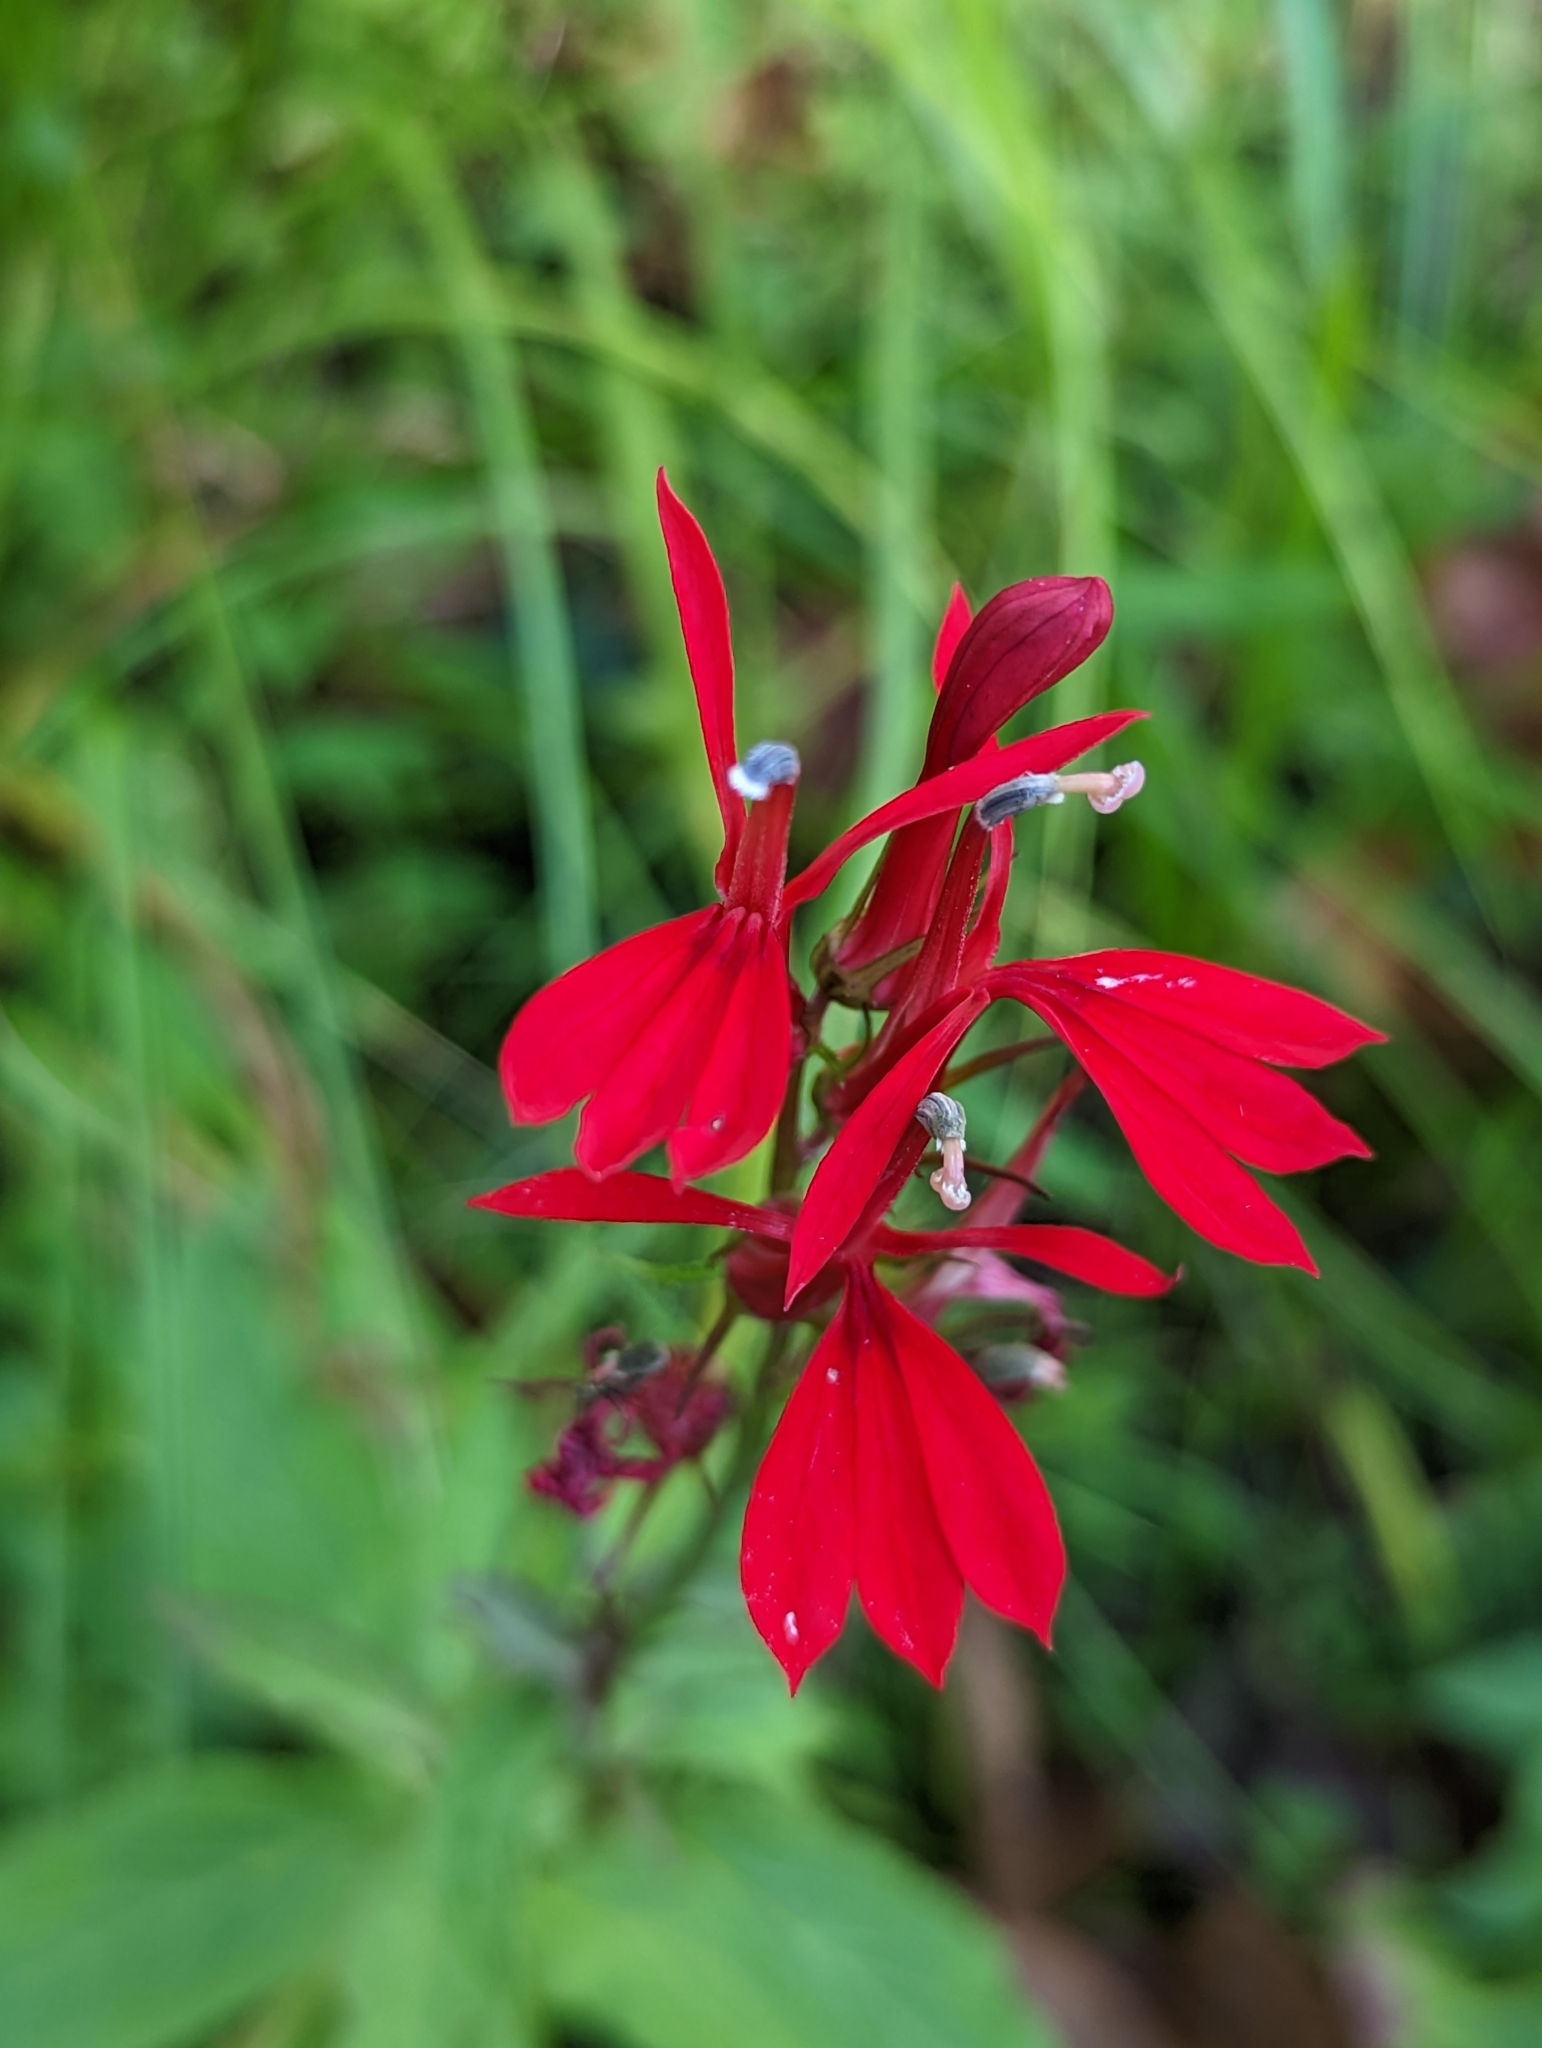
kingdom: Plantae
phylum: Tracheophyta
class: Magnoliopsida
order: Asterales
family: Campanulaceae
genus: Lobelia
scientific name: Lobelia cardinalis
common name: Cardinal flower
